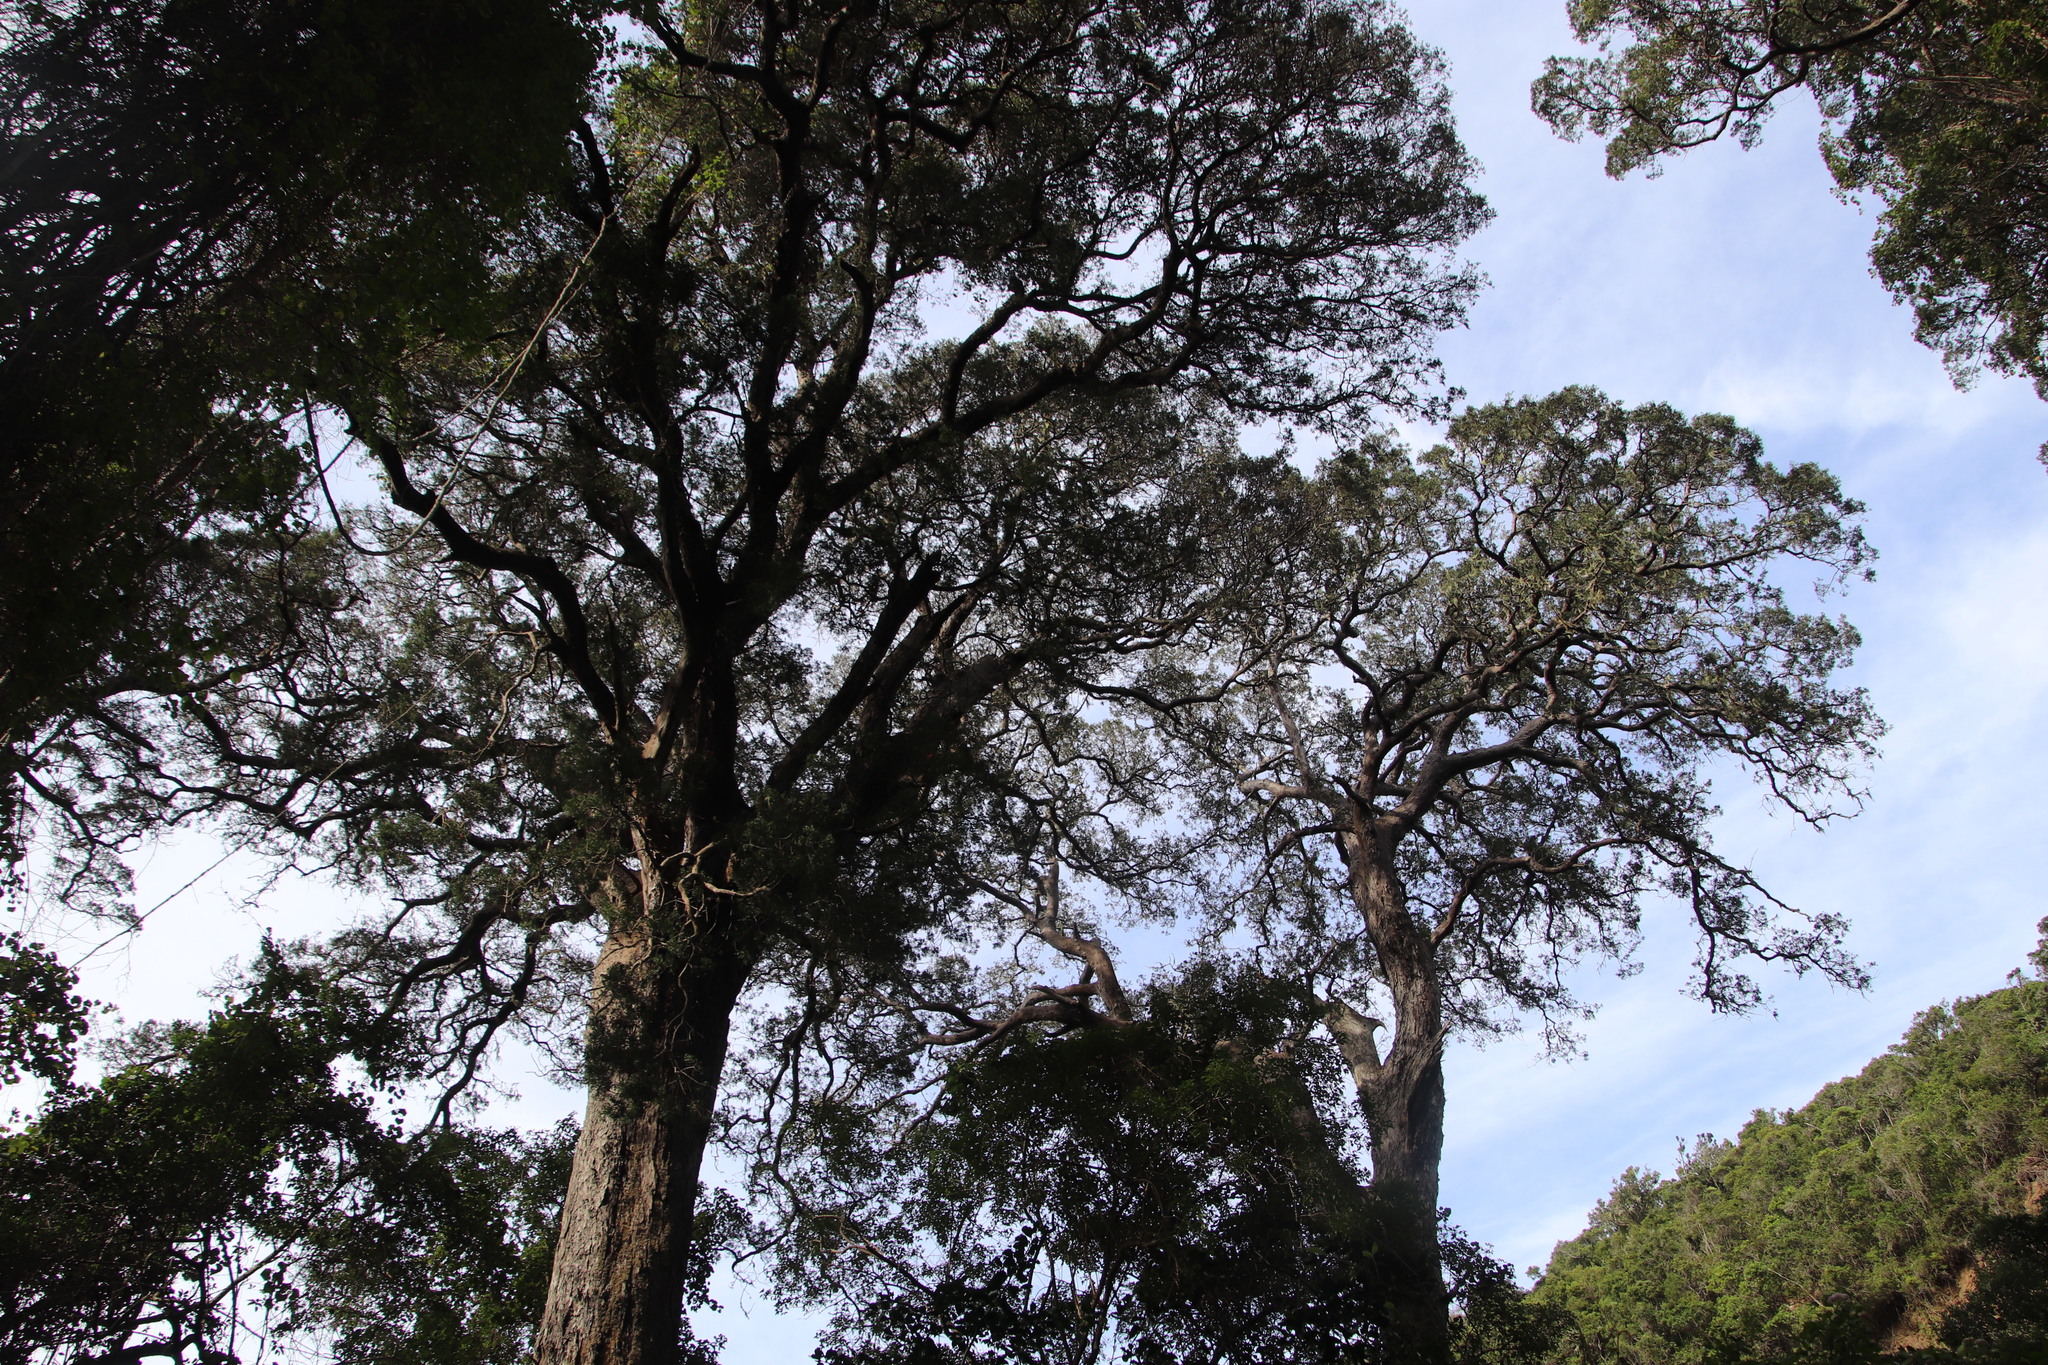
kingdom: Plantae
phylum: Tracheophyta
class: Pinopsida
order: Pinales
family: Podocarpaceae
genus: Afrocarpus
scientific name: Afrocarpus falcatus
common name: Bastard yellowwood
